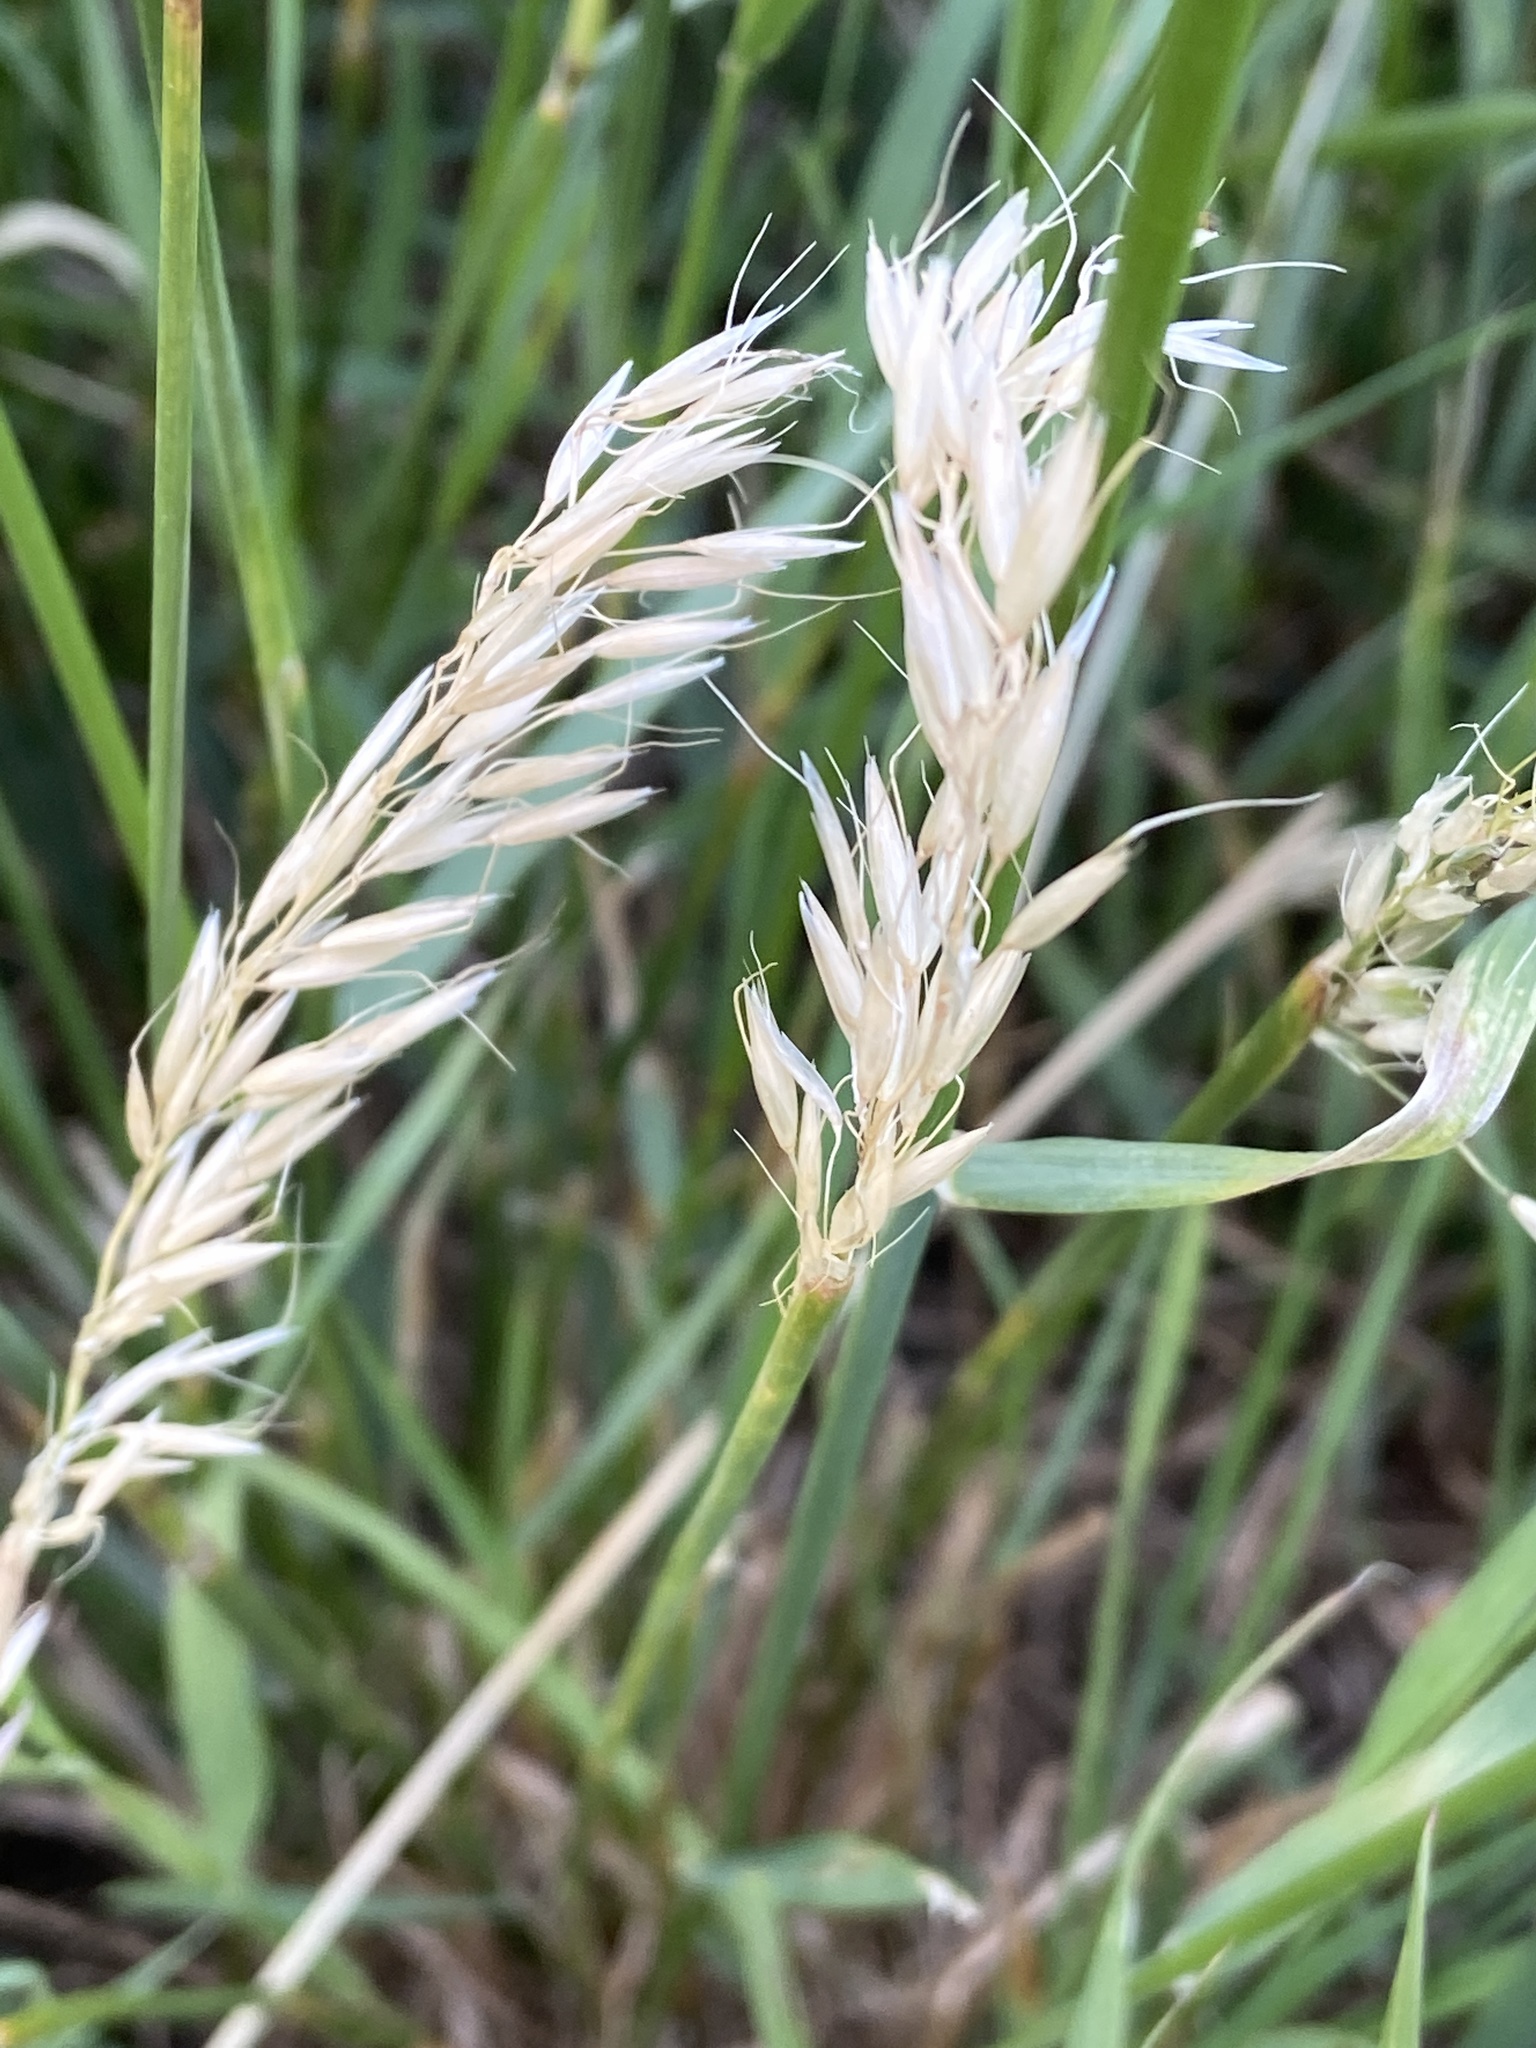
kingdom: Plantae
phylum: Tracheophyta
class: Liliopsida
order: Poales
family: Poaceae
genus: Arrhenatherum
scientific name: Arrhenatherum elatius
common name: Tall oatgrass
